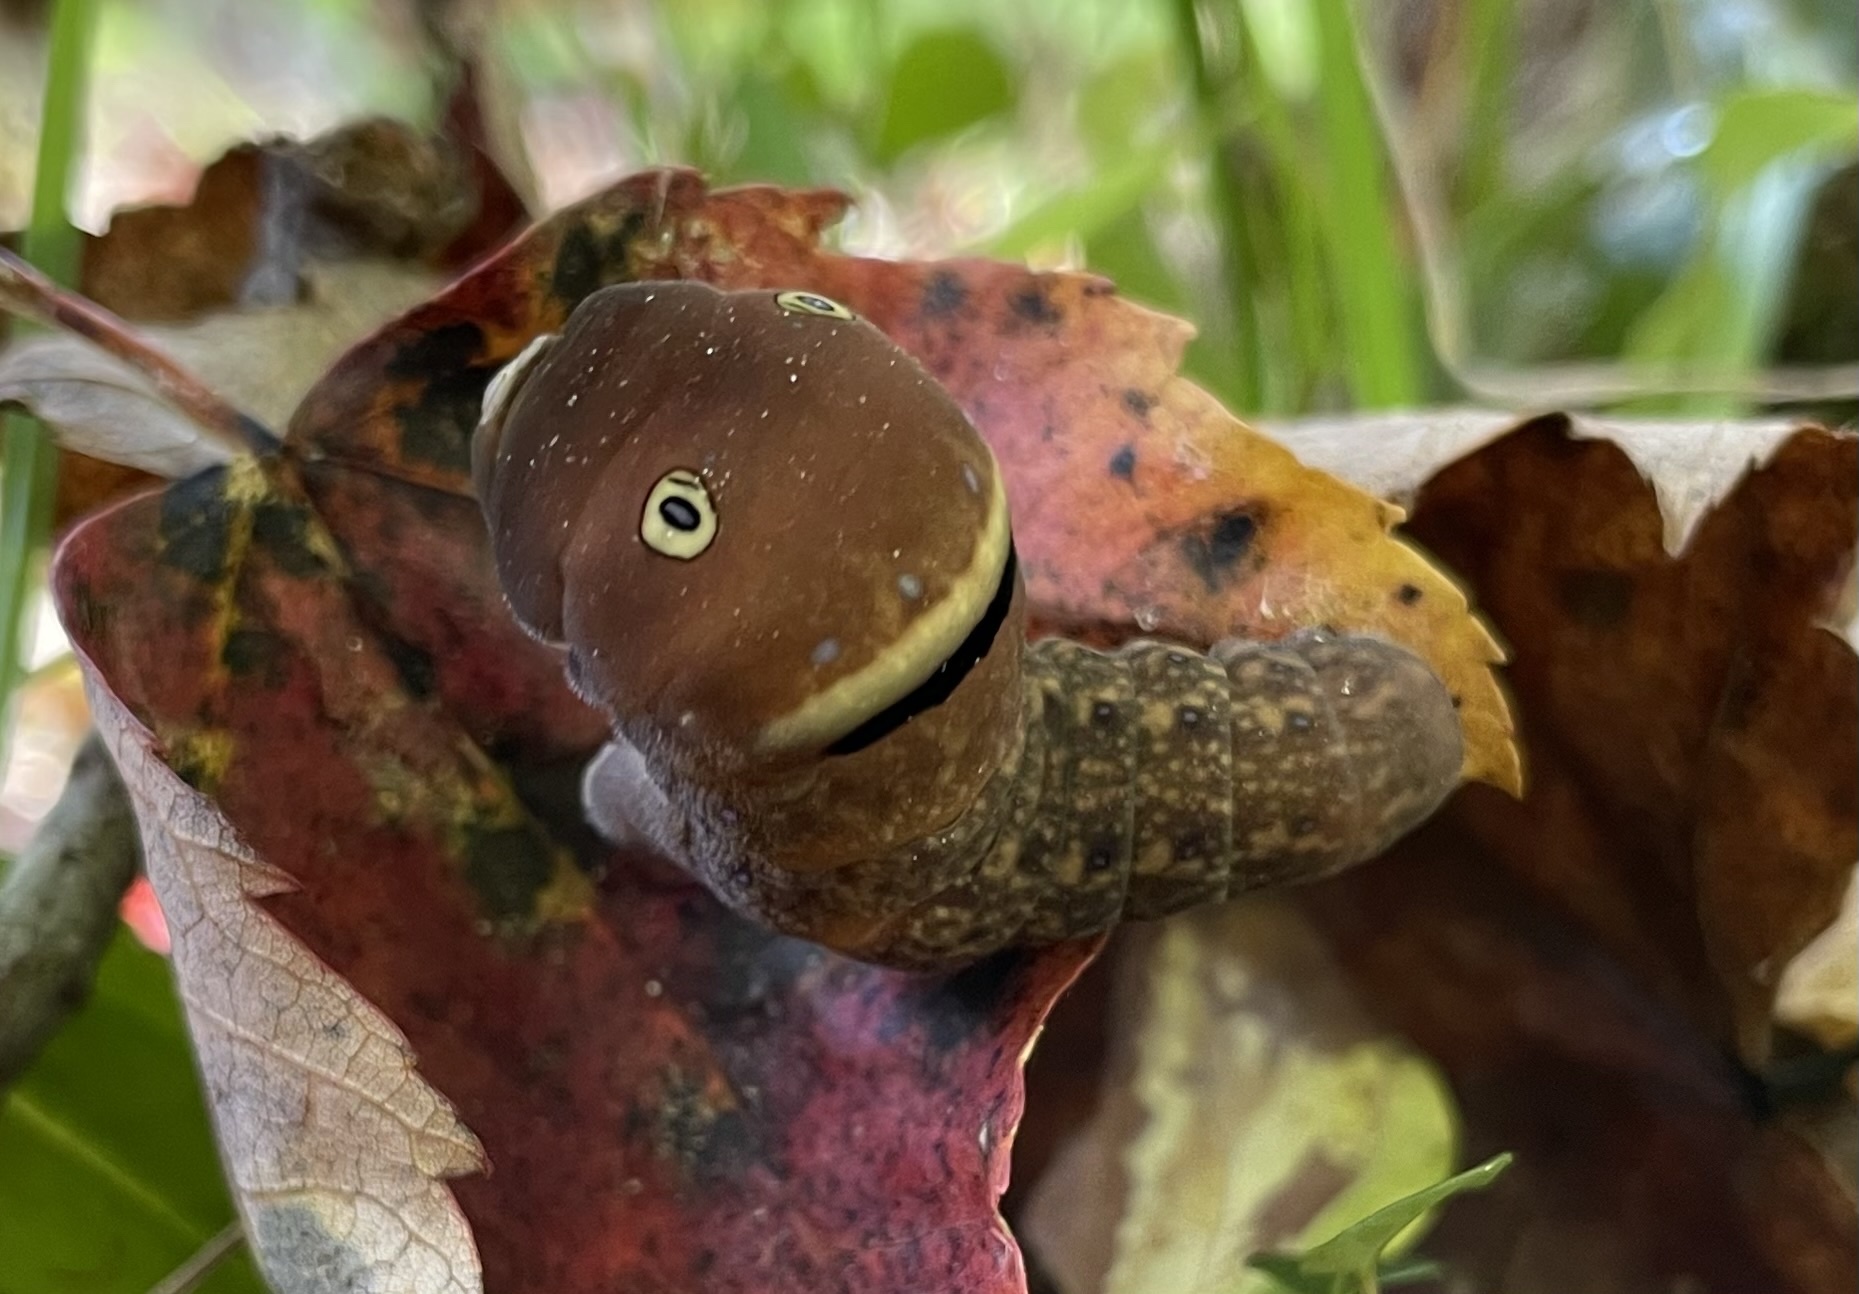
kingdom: Animalia
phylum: Arthropoda
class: Insecta
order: Lepidoptera
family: Papilionidae
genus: Papilio
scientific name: Papilio glaucus
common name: Tiger swallowtail
